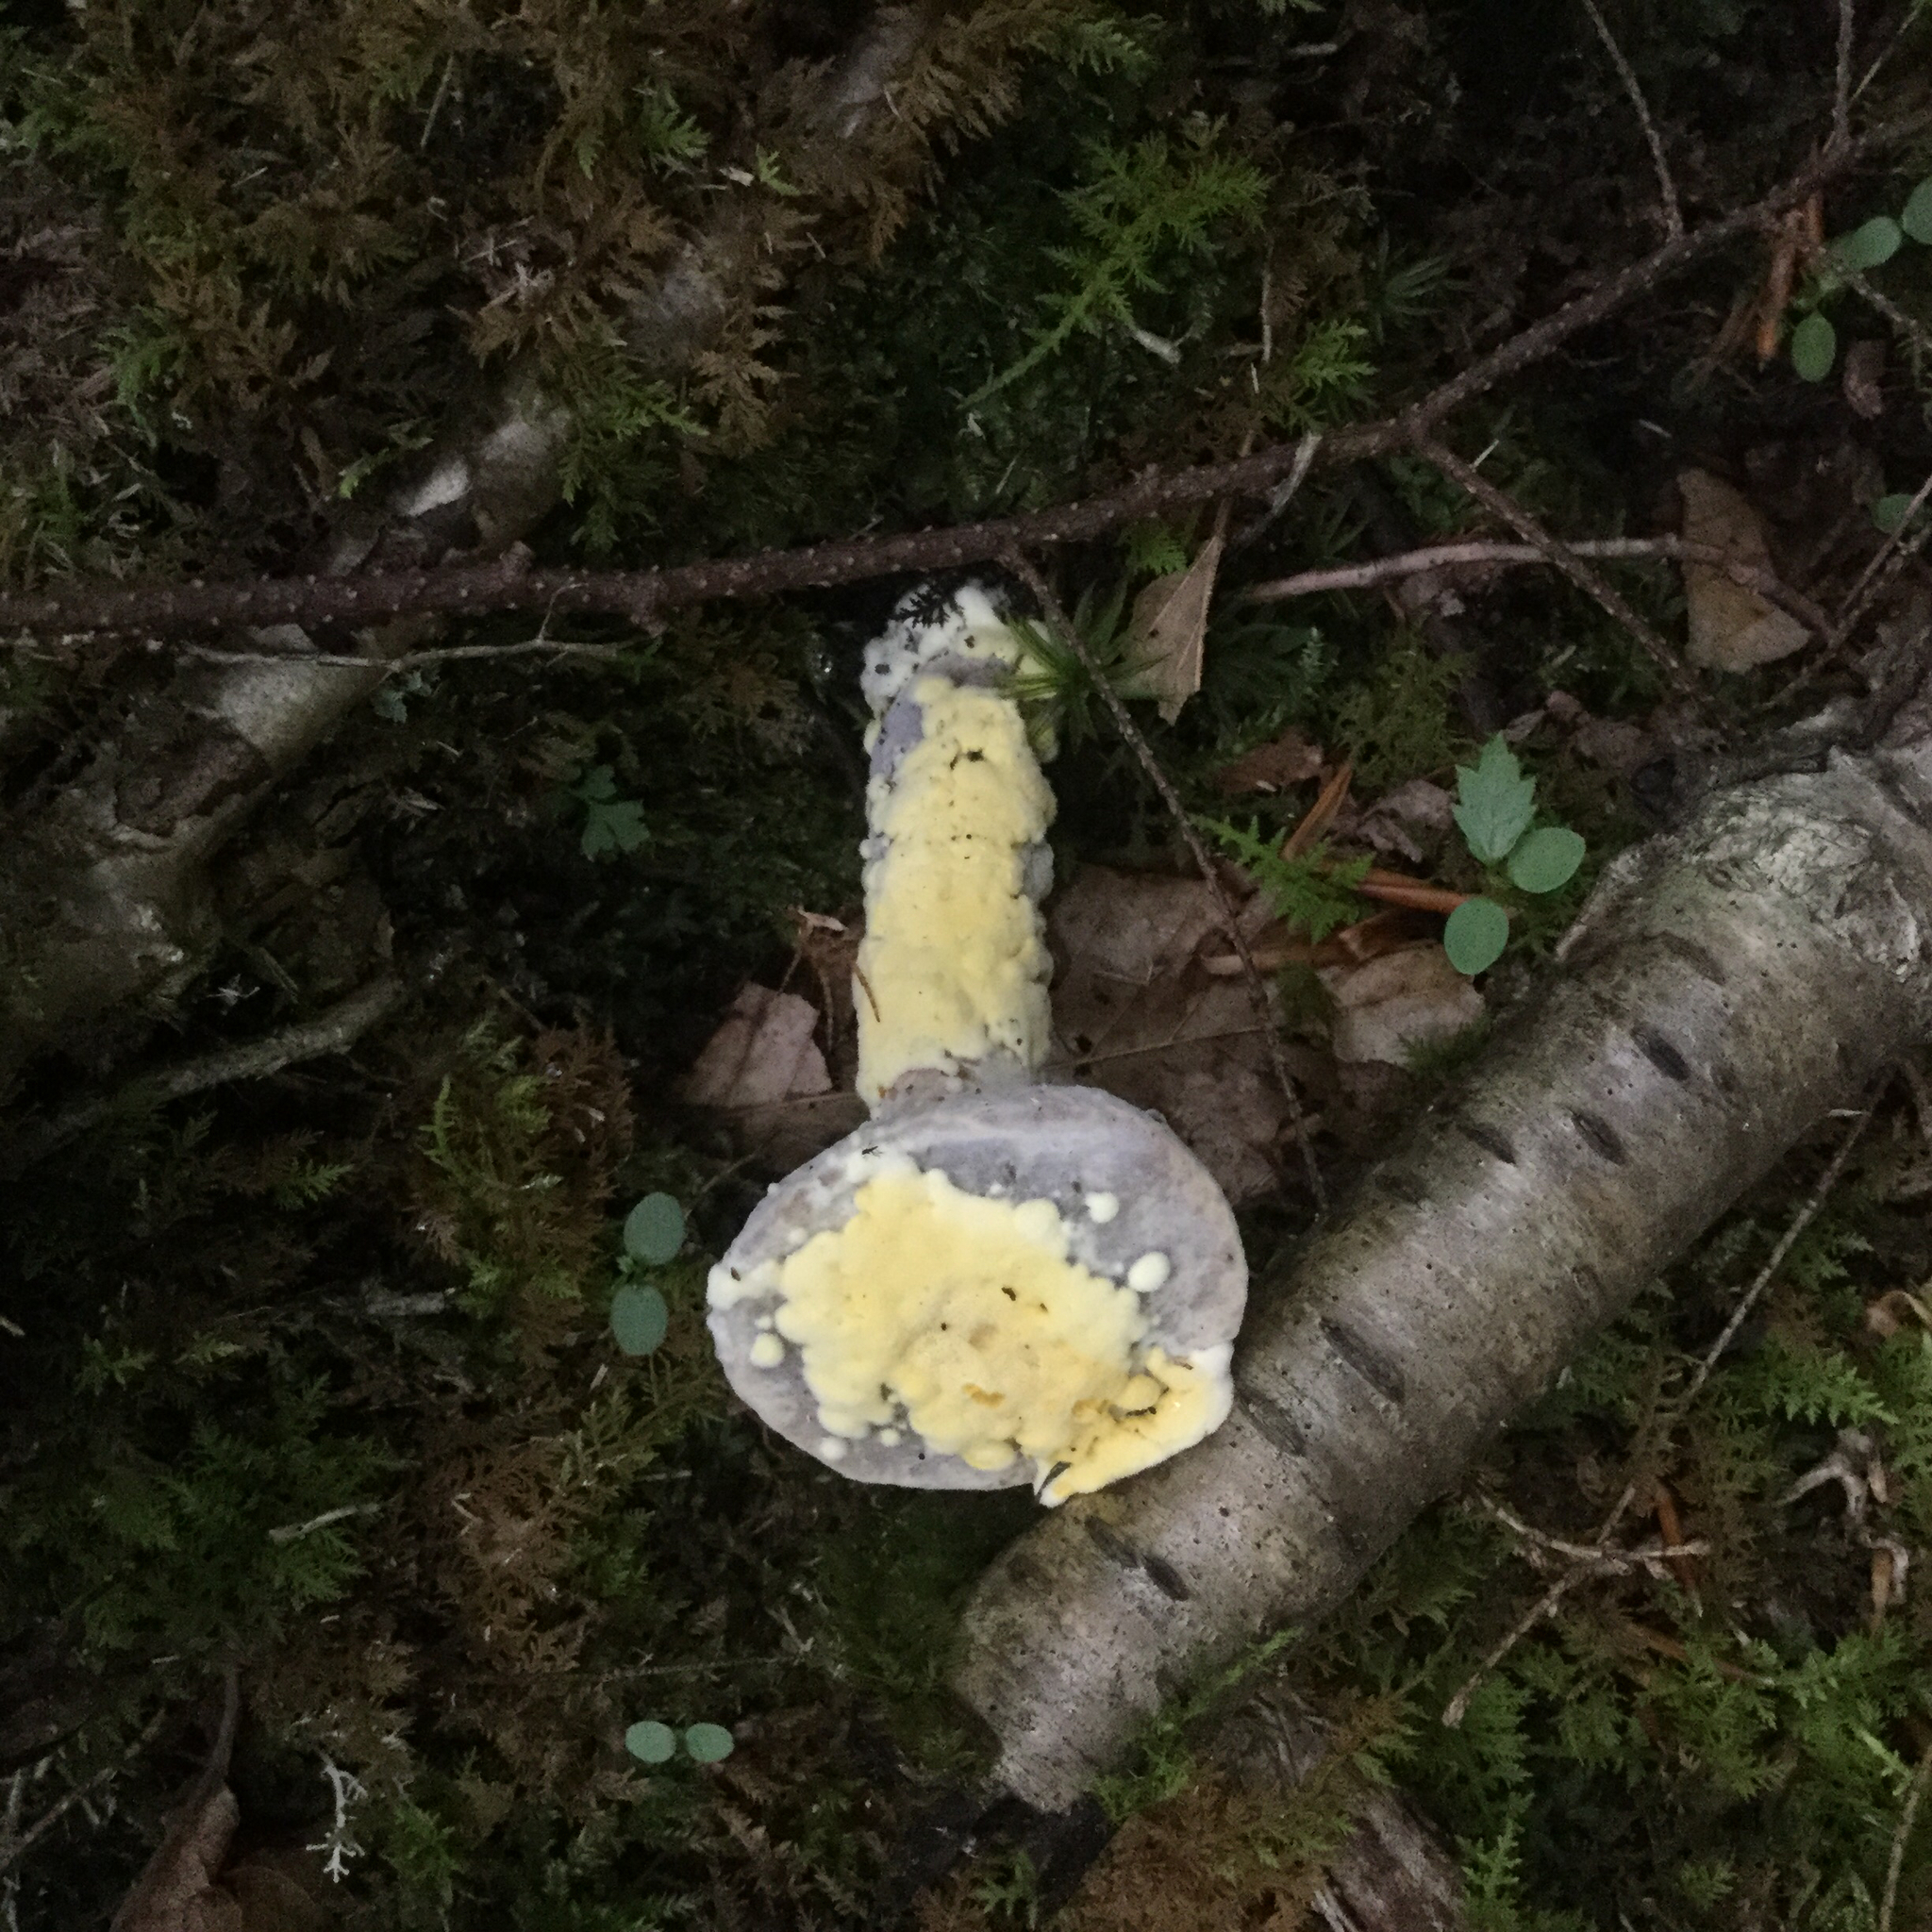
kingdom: Fungi
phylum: Ascomycota
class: Sordariomycetes
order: Hypocreales
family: Hypocreaceae
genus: Hypomyces
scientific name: Hypomyces chrysospermus
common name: Bolete mould
